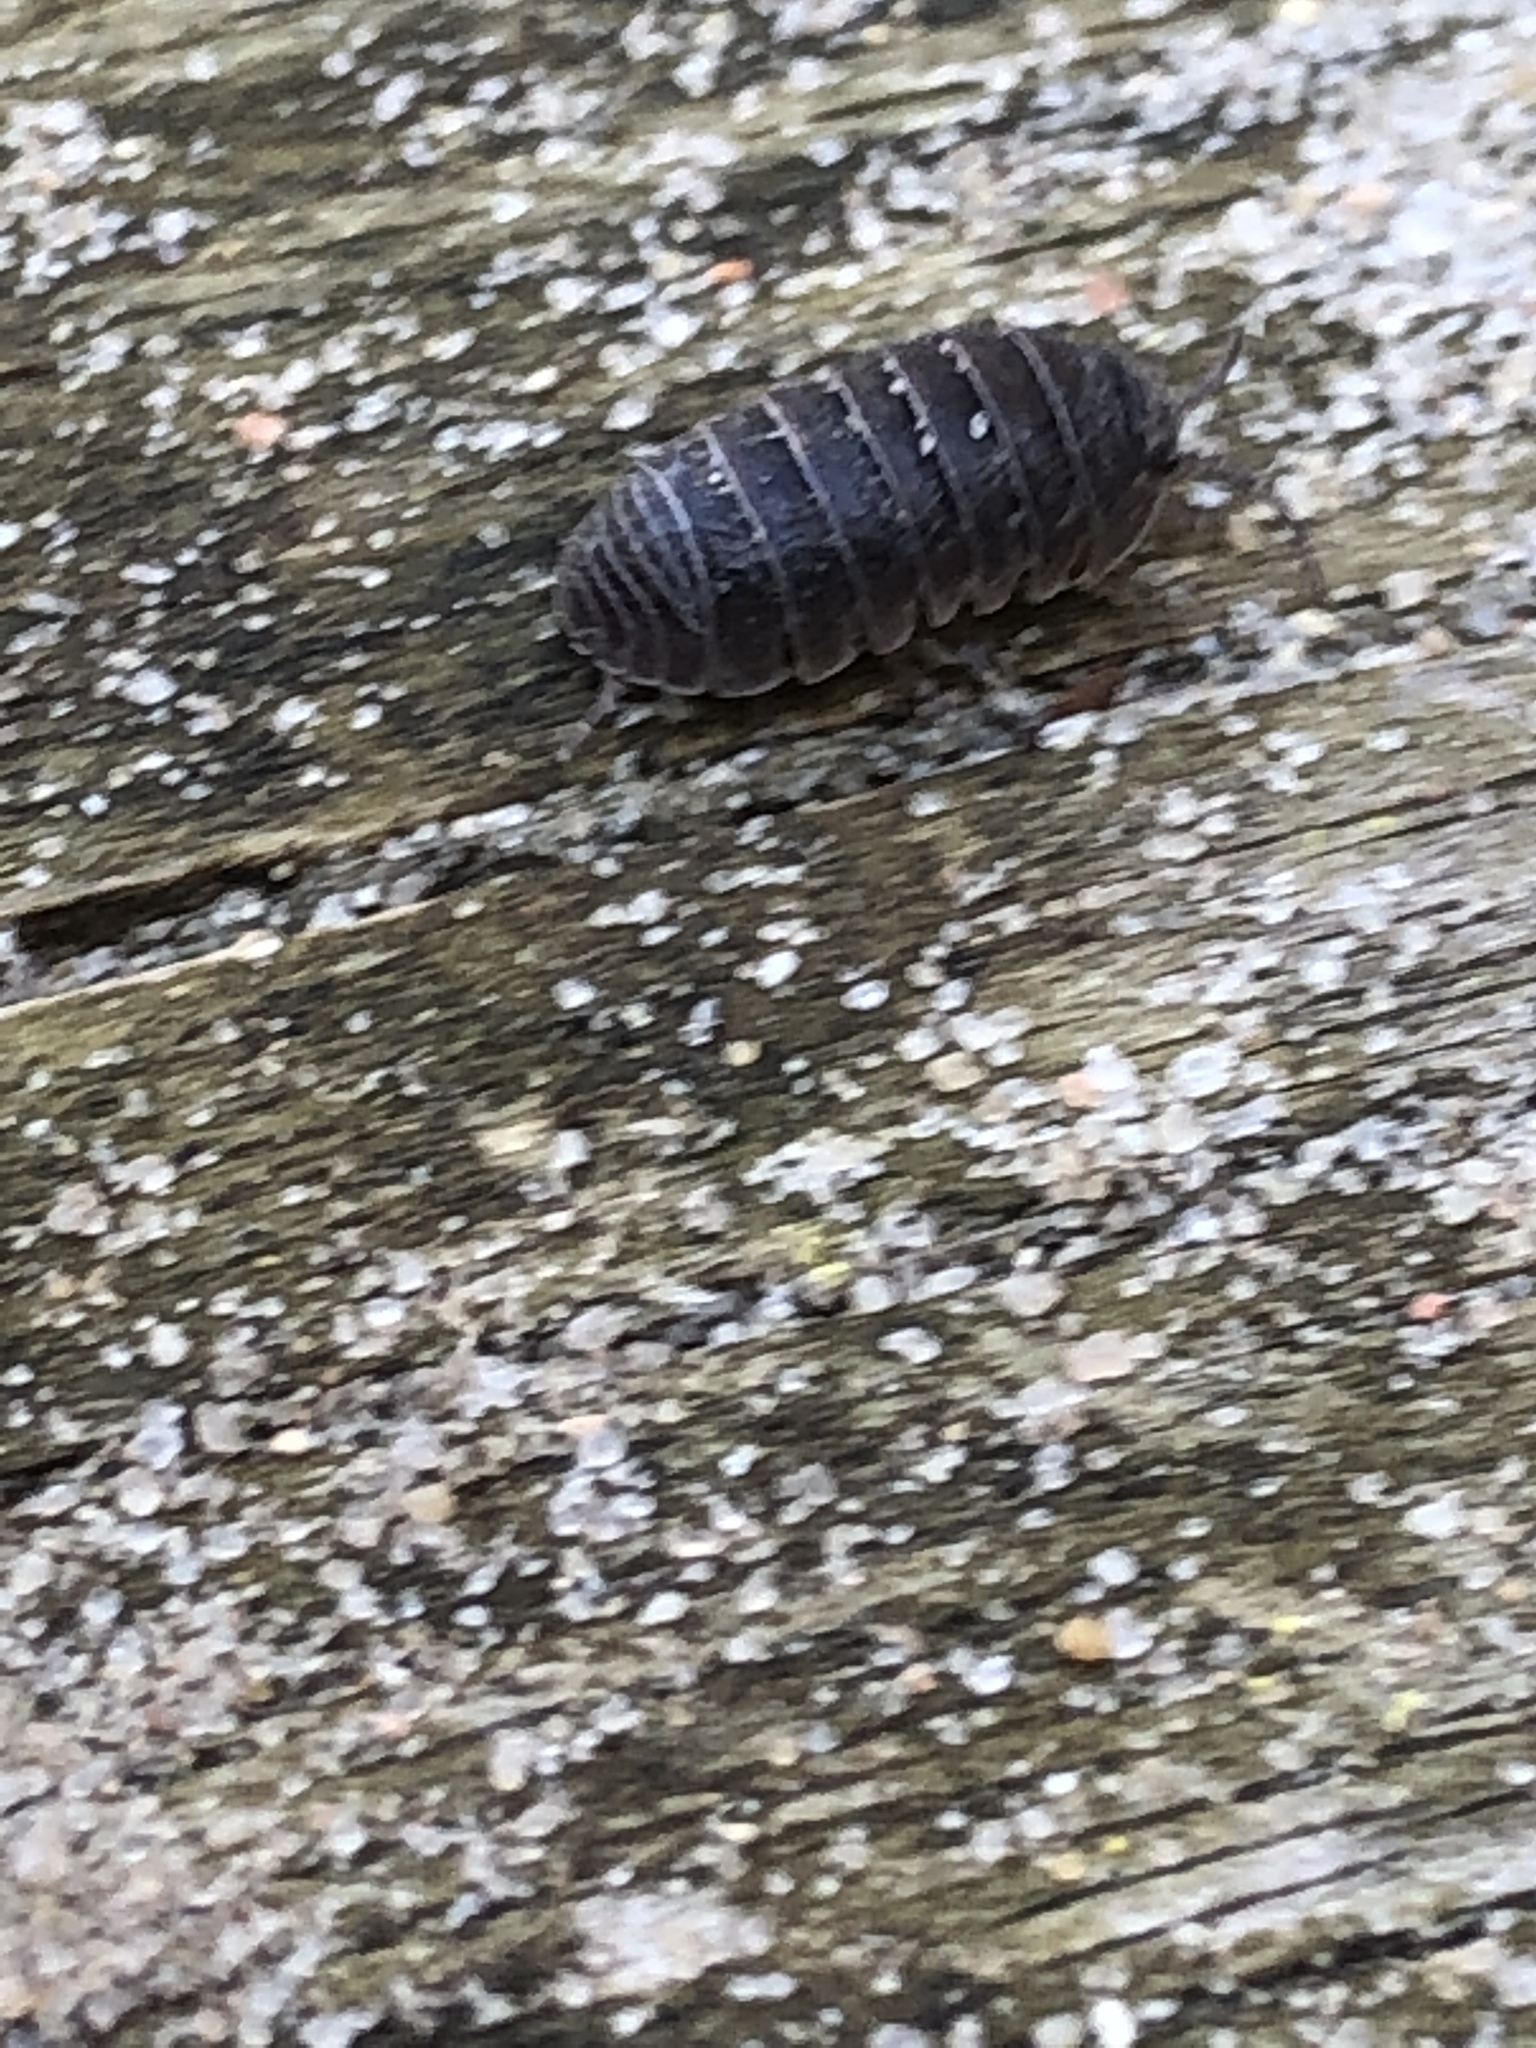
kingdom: Animalia
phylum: Arthropoda
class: Malacostraca
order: Isopoda
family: Armadillidiidae
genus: Armadillidium
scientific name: Armadillidium vulgare
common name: Common pill woodlouse
